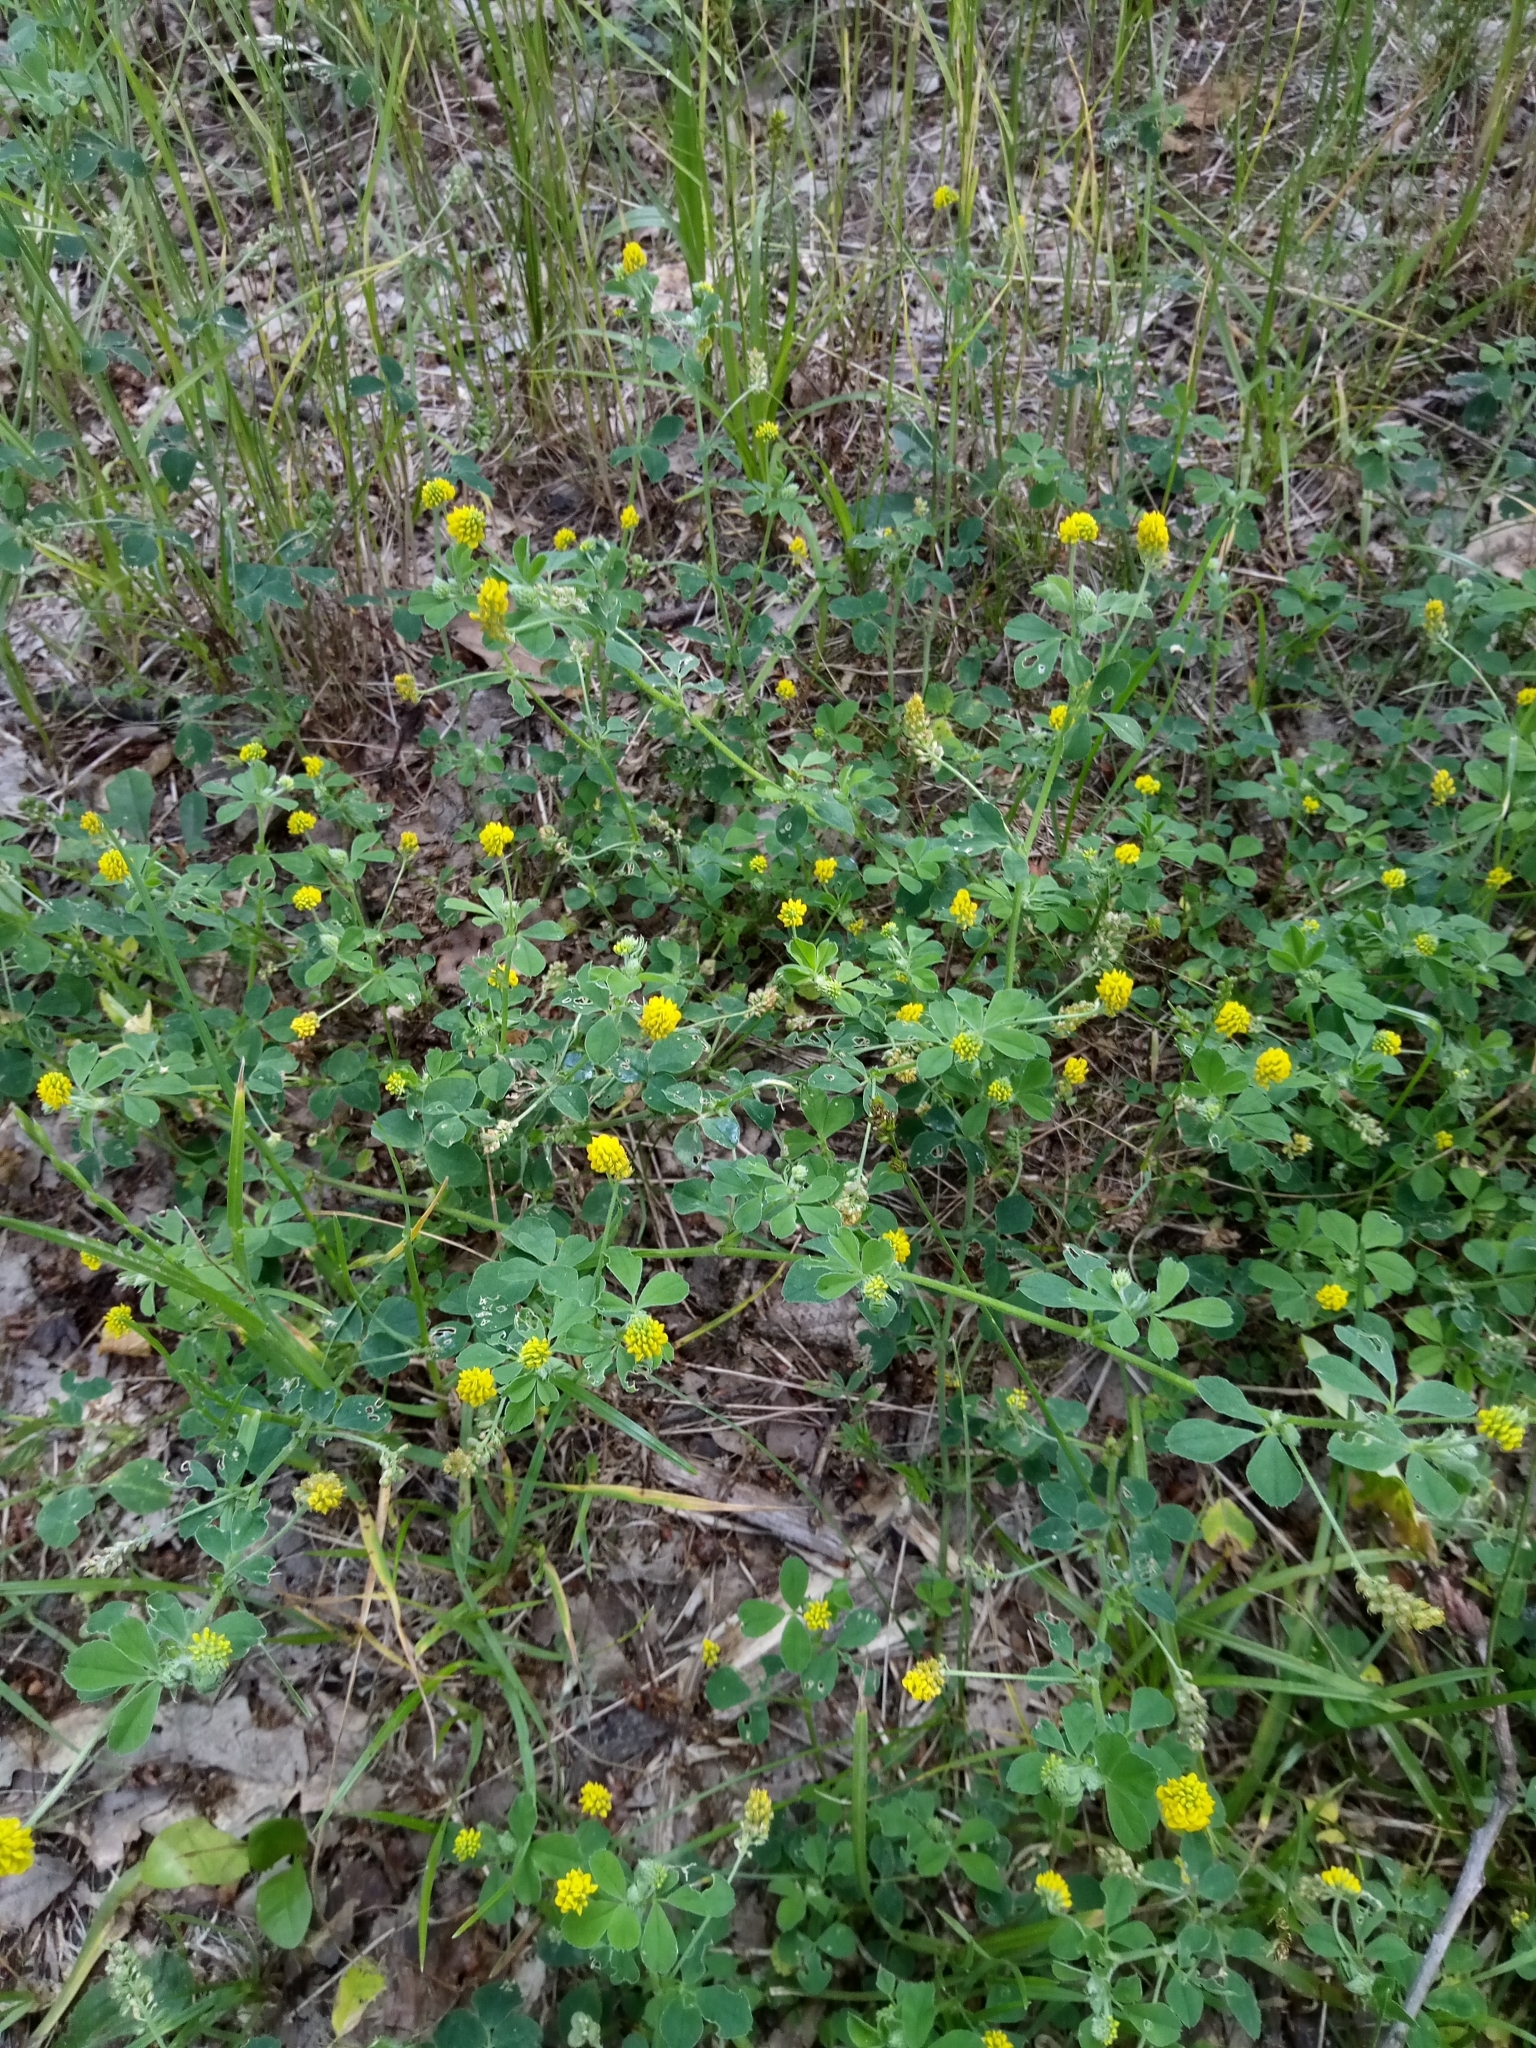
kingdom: Plantae
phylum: Tracheophyta
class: Magnoliopsida
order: Fabales
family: Fabaceae
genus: Medicago
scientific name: Medicago lupulina
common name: Black medick
